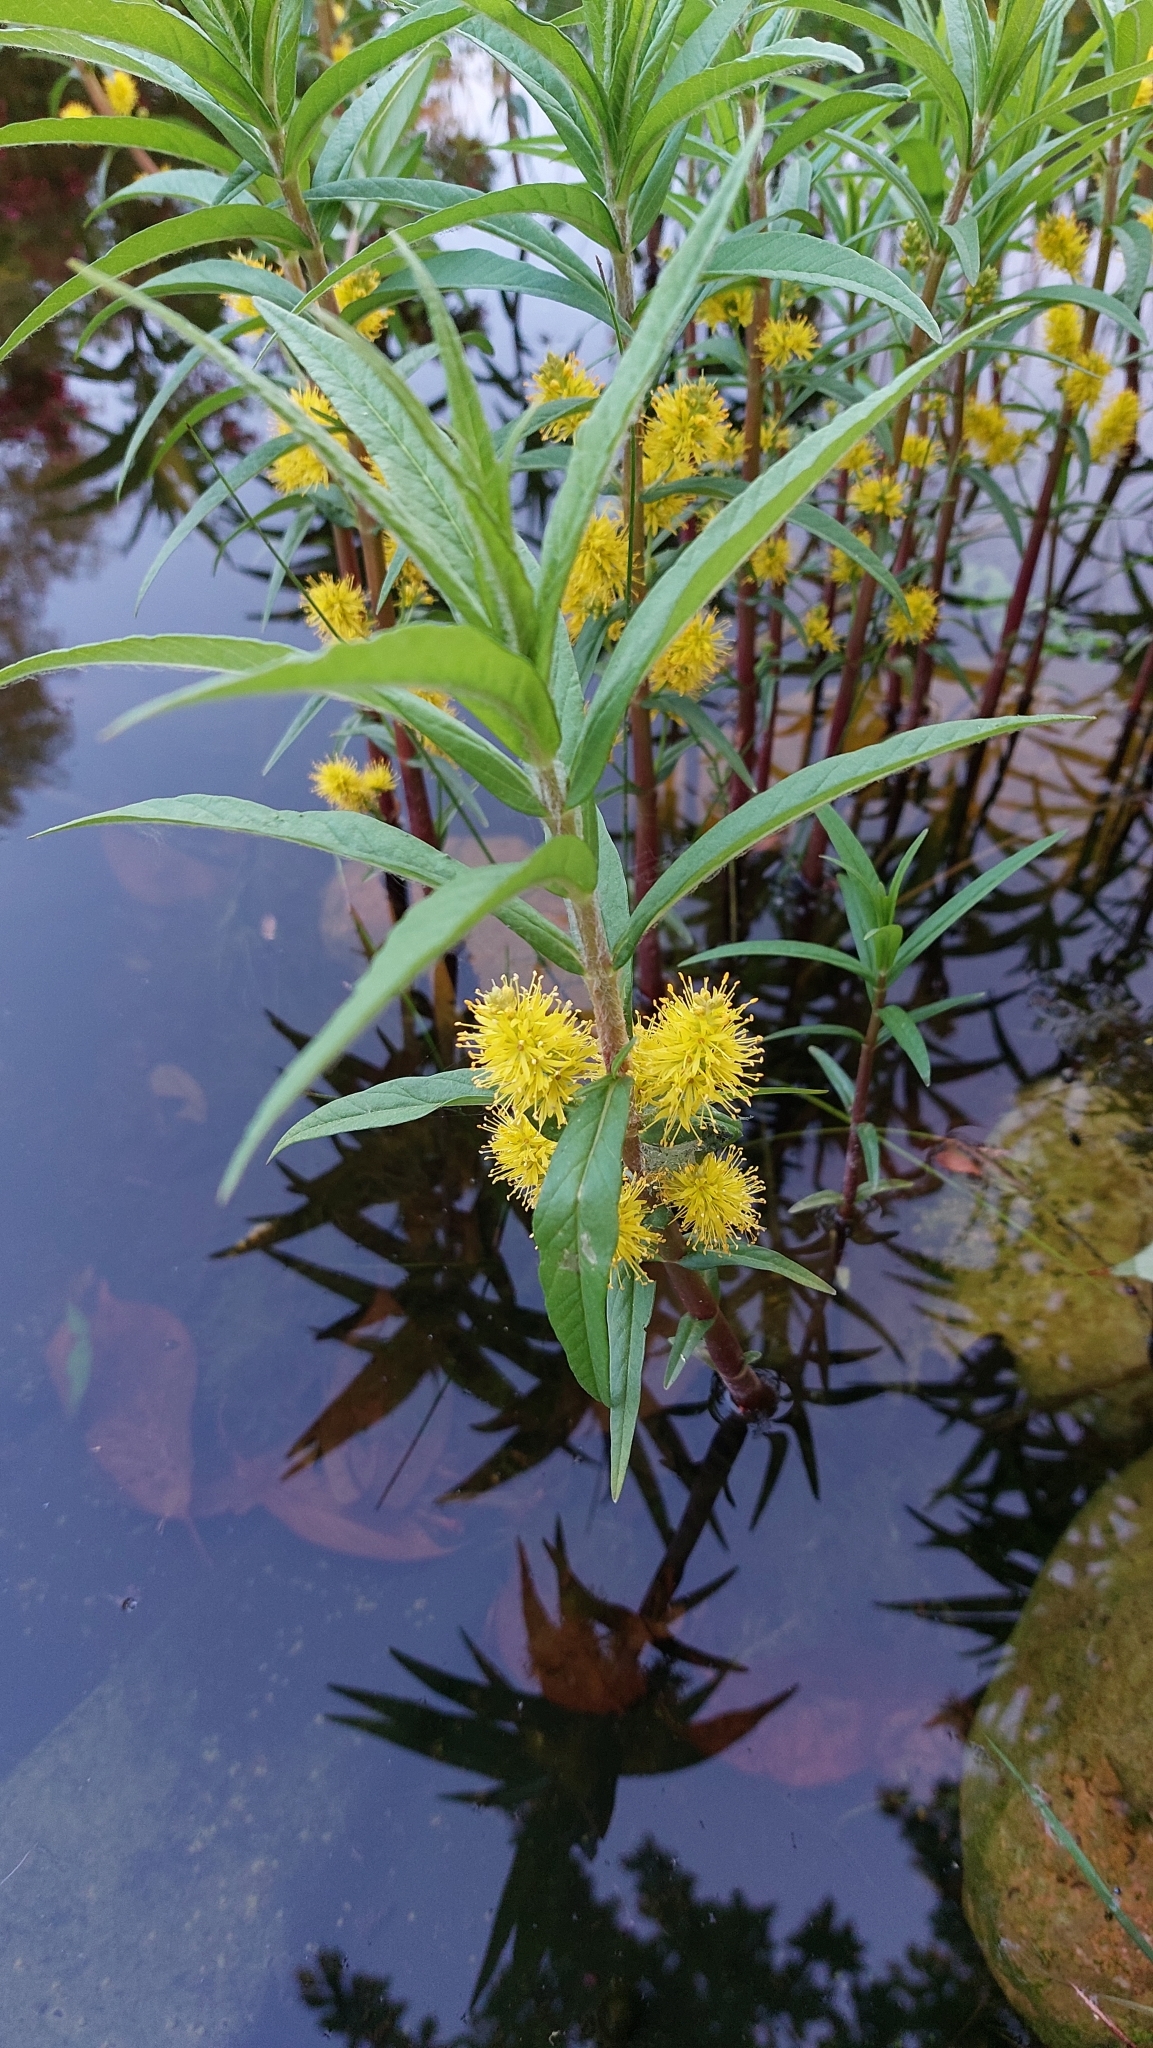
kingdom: Plantae
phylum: Tracheophyta
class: Magnoliopsida
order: Ericales
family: Primulaceae
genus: Lysimachia
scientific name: Lysimachia thyrsiflora
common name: Tufted loosestrife
